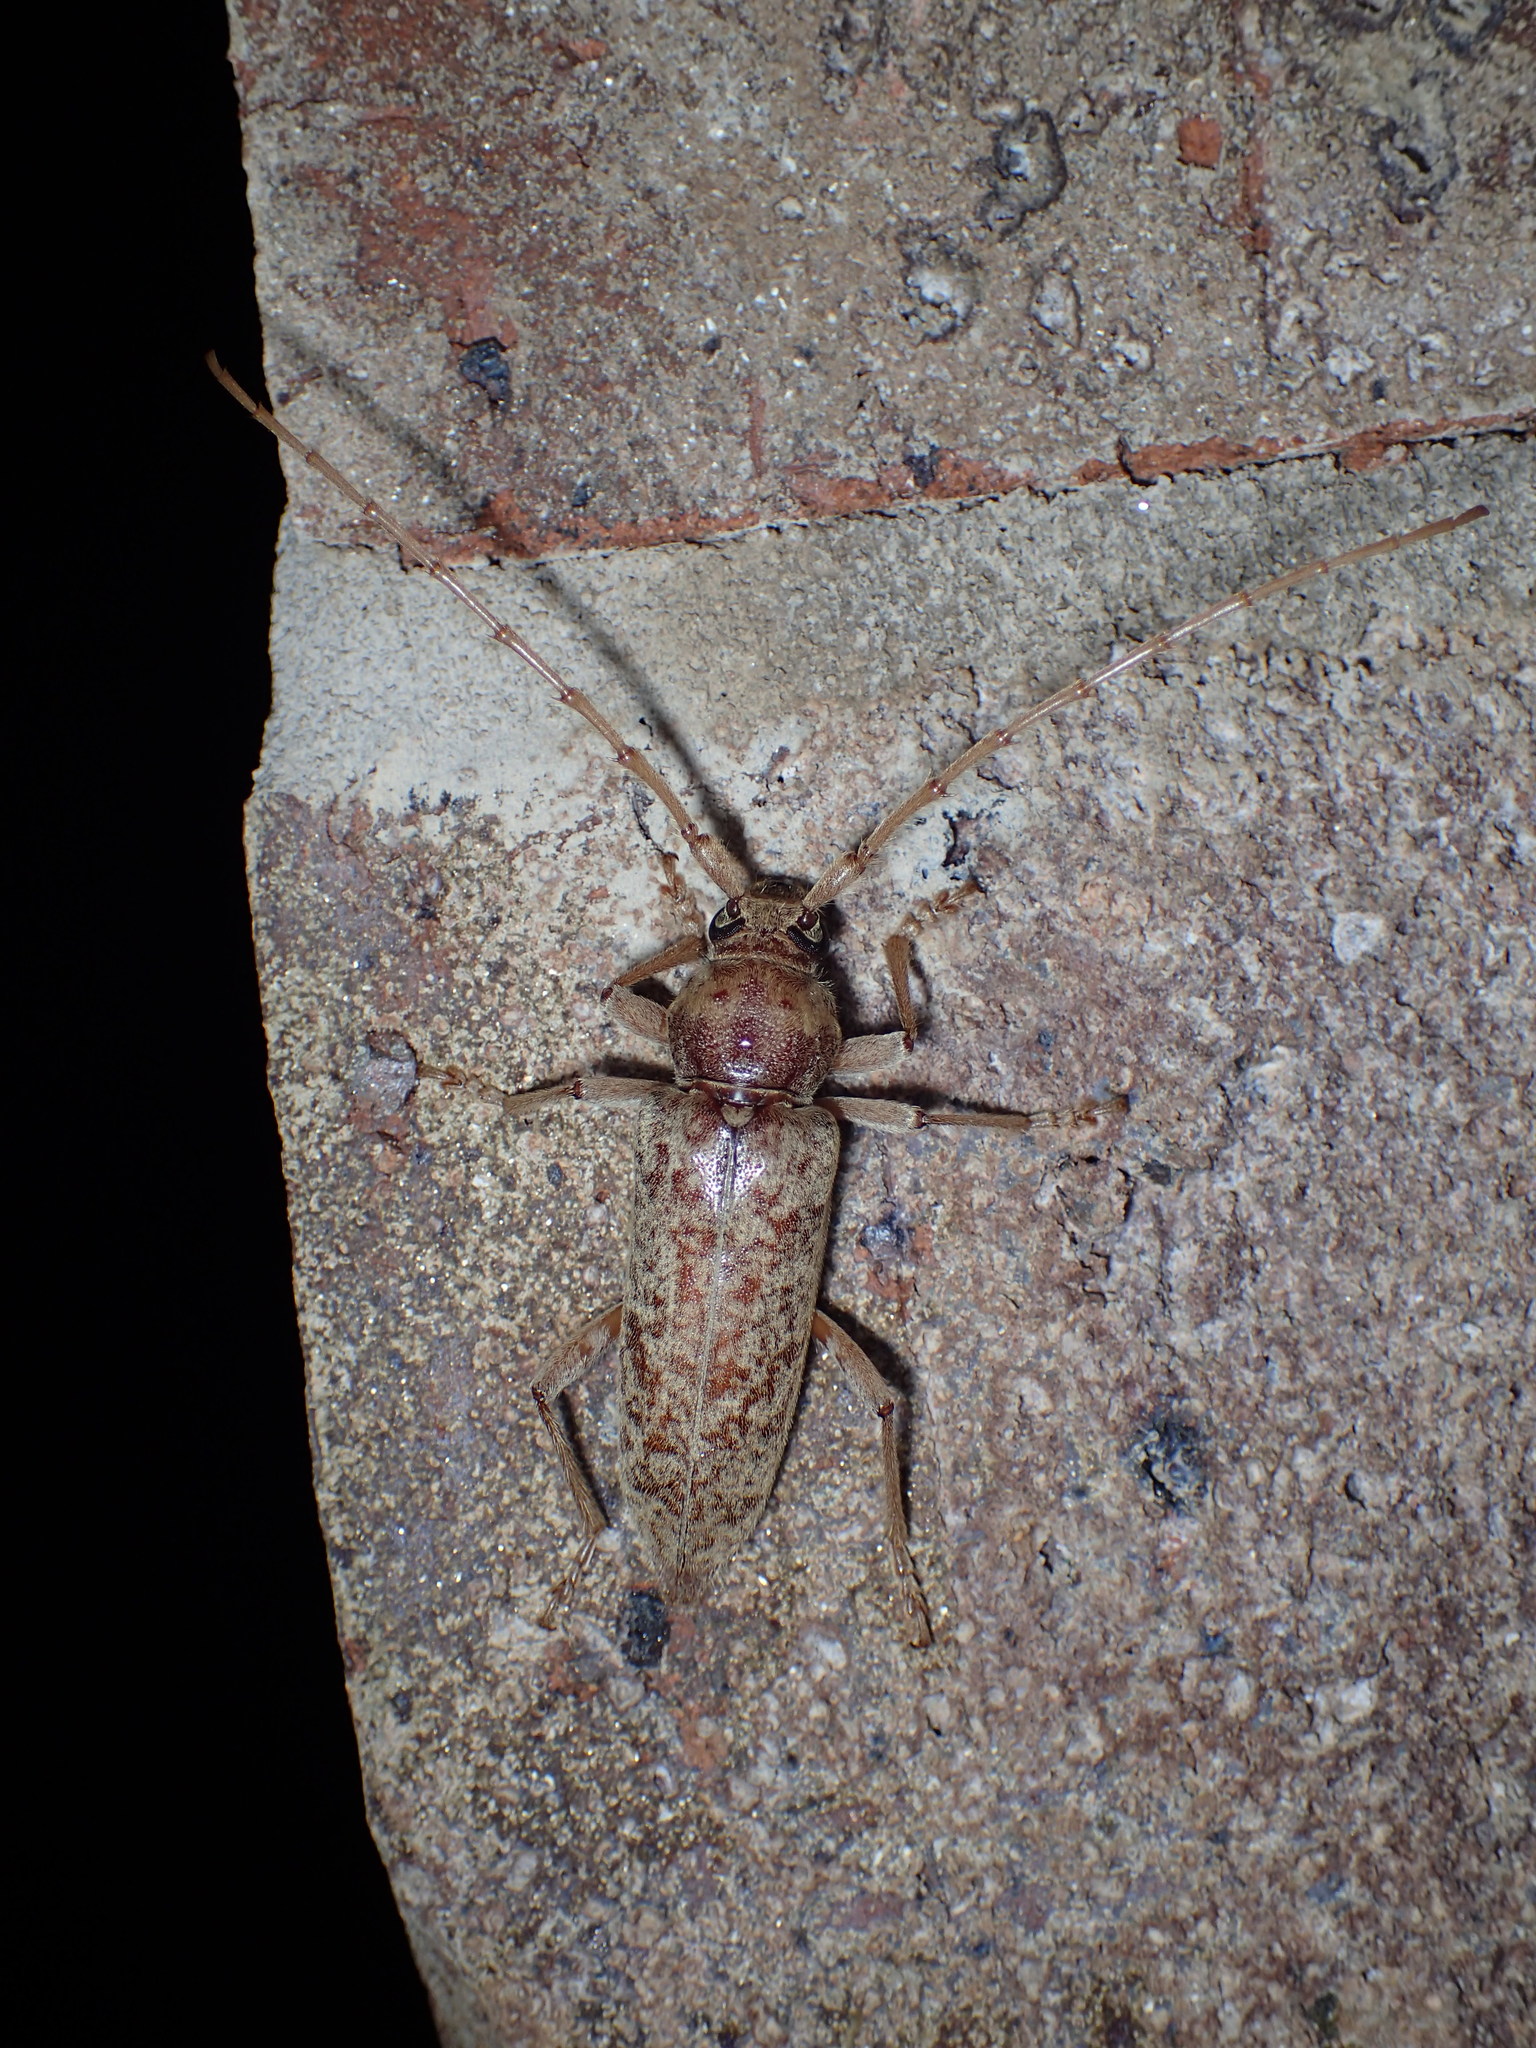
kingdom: Animalia
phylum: Arthropoda
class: Insecta
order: Coleoptera
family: Cerambycidae
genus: Enaphalodes
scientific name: Enaphalodes rufulus
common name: Red oak borer
